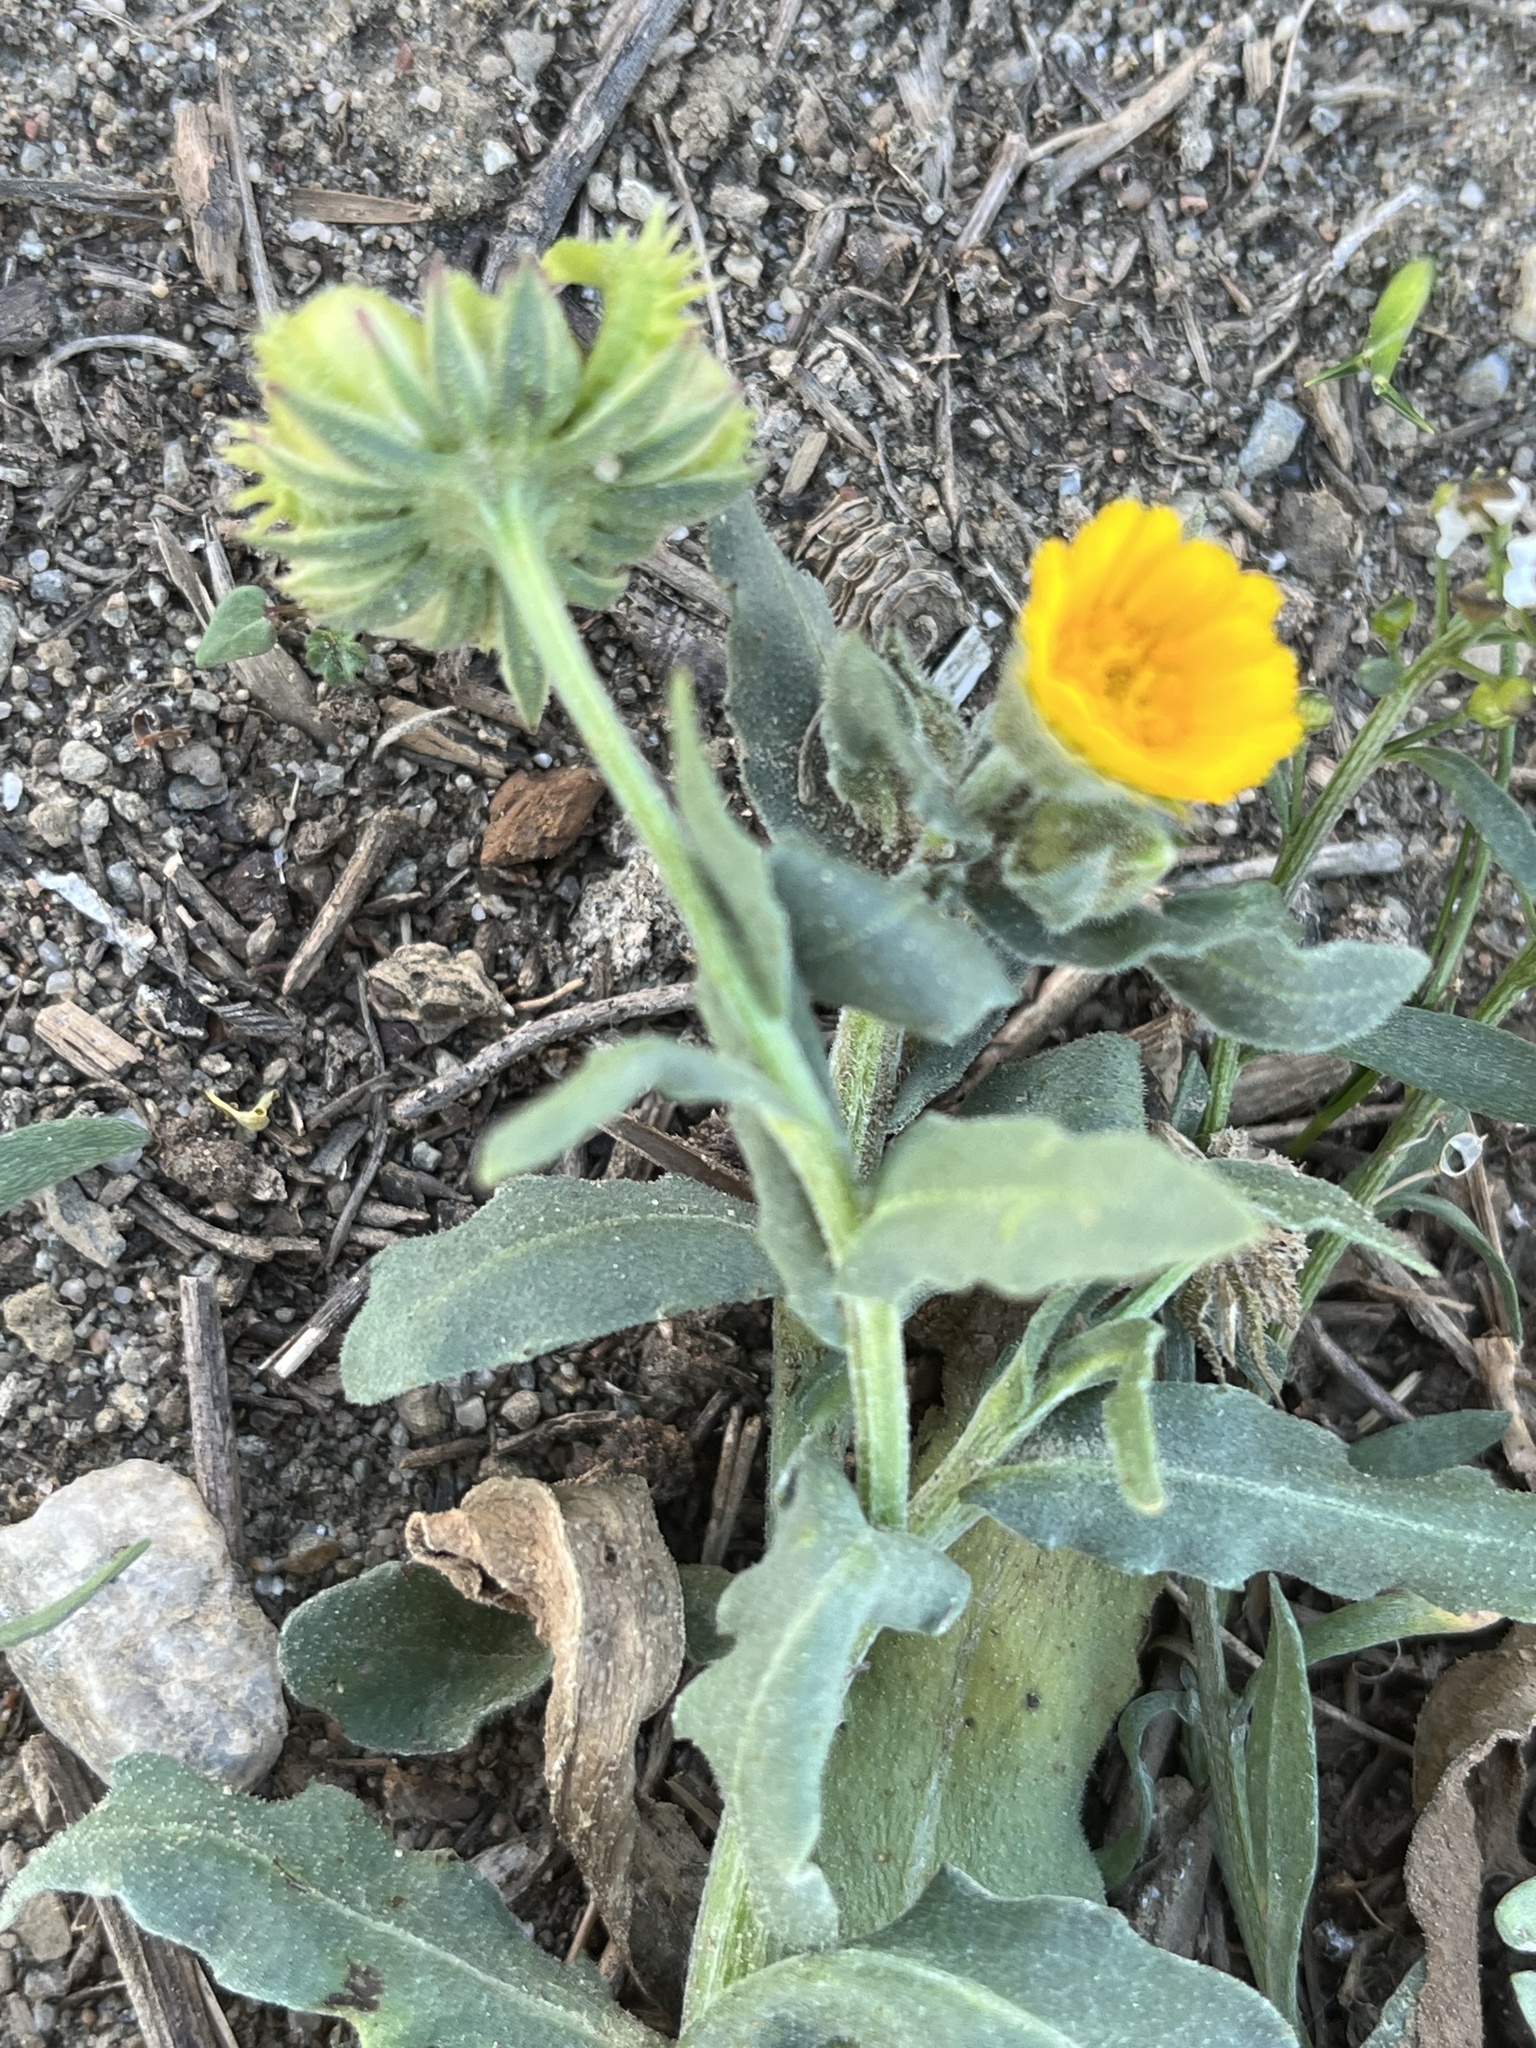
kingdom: Plantae
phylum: Tracheophyta
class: Magnoliopsida
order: Asterales
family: Asteraceae
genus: Calendula
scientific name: Calendula arvensis
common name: Field marigold
